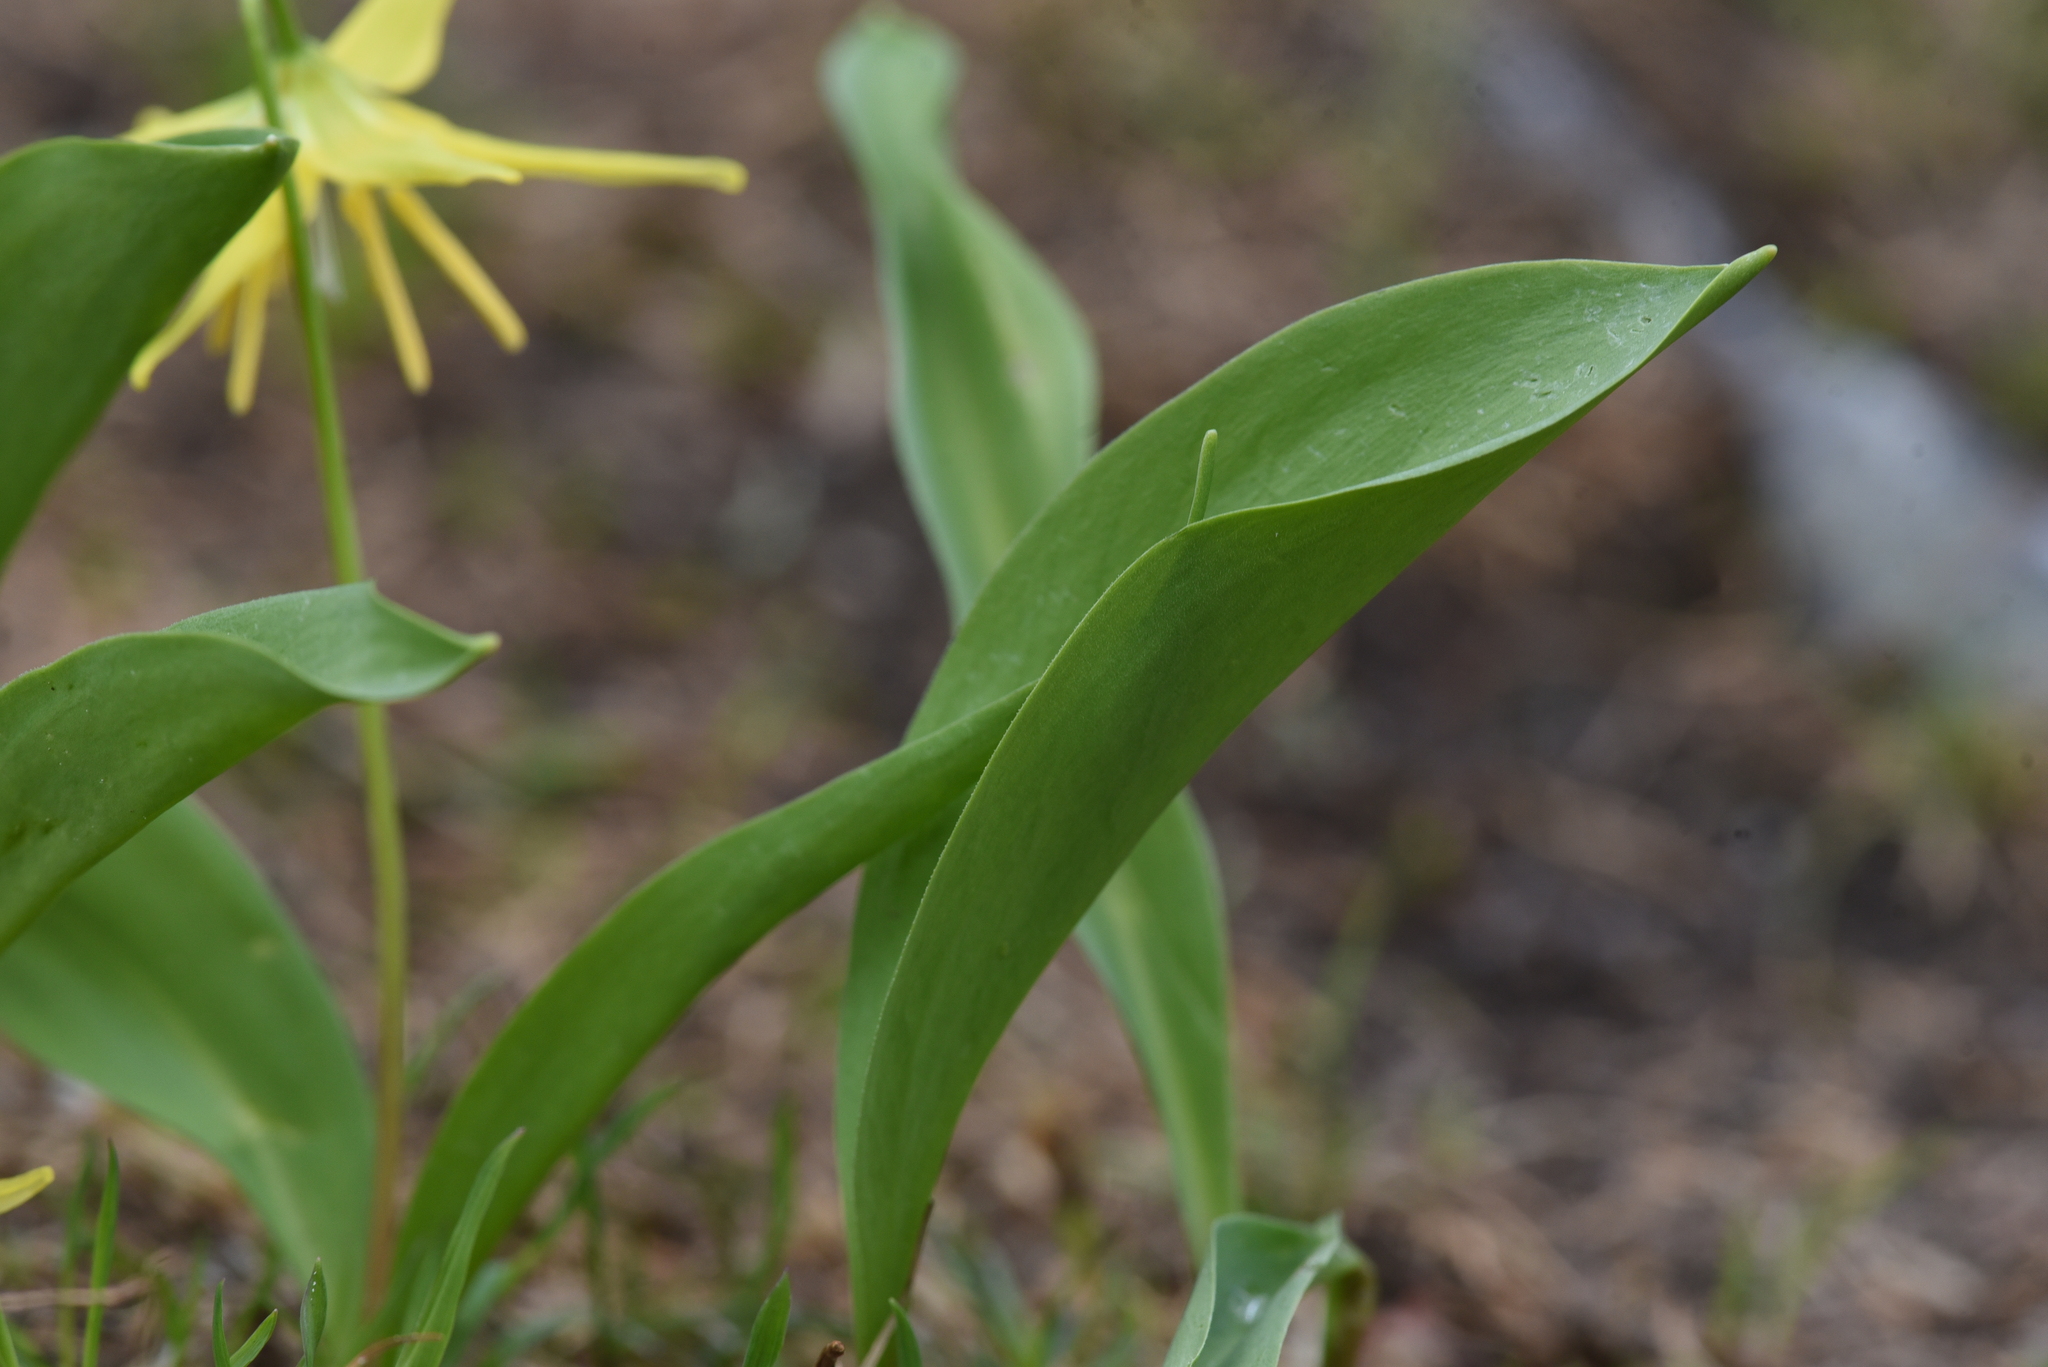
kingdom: Plantae
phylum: Tracheophyta
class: Liliopsida
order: Liliales
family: Liliaceae
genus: Erythronium
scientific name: Erythronium grandiflorum
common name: Avalanche-lily
